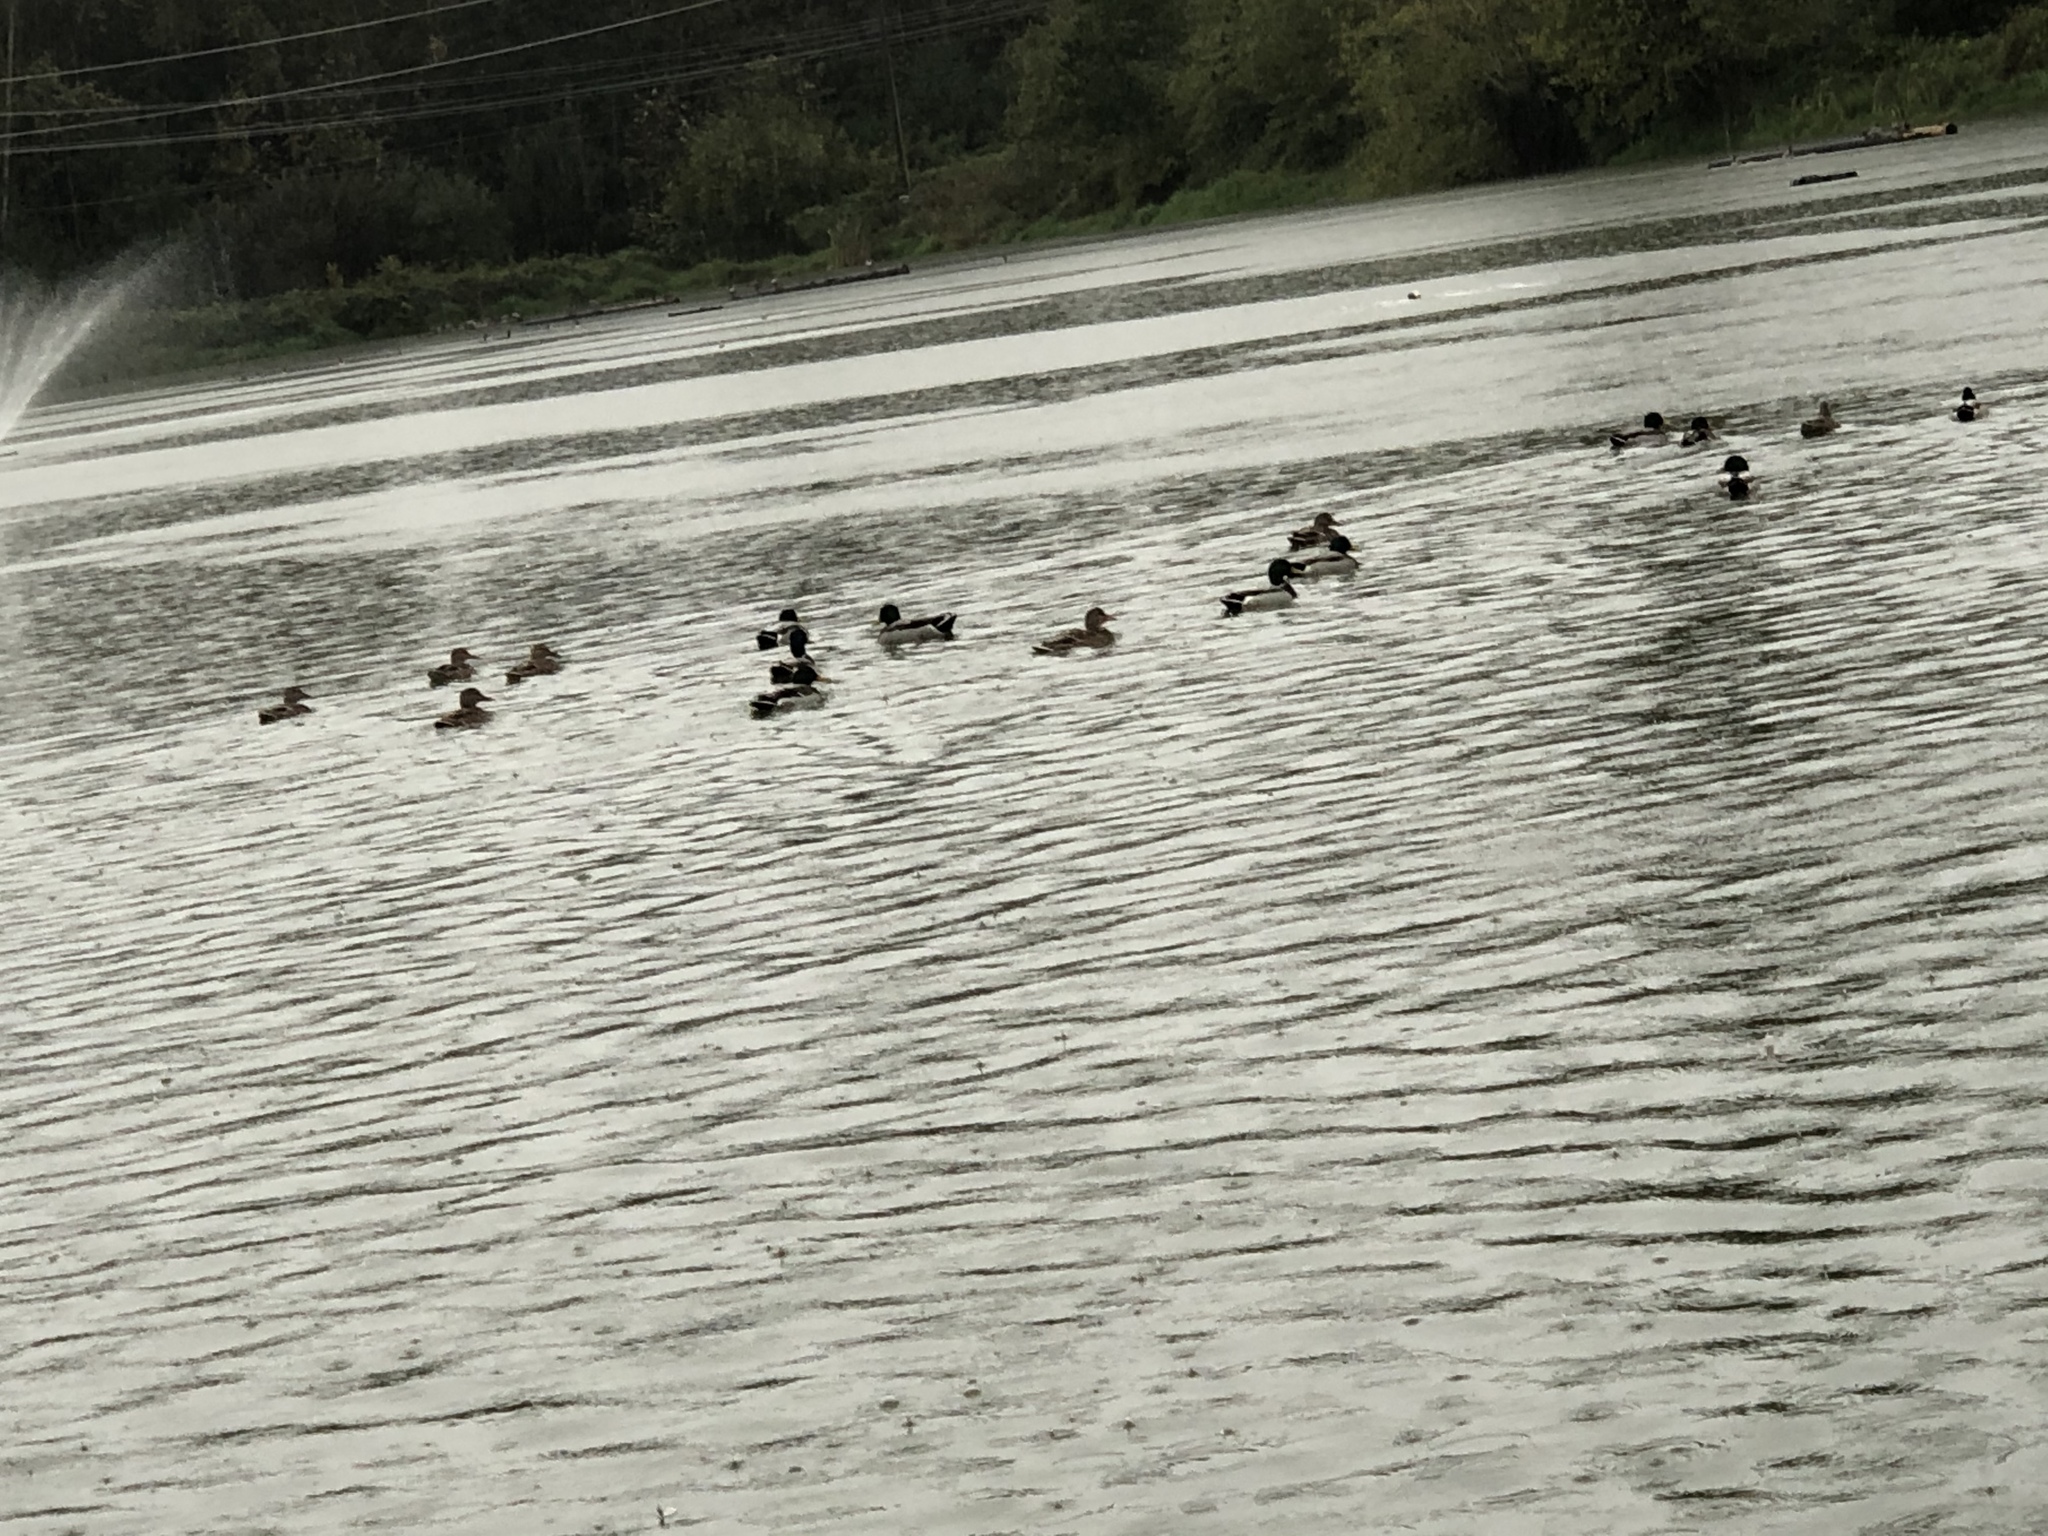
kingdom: Animalia
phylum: Chordata
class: Aves
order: Anseriformes
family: Anatidae
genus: Anas
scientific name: Anas platyrhynchos
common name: Mallard
